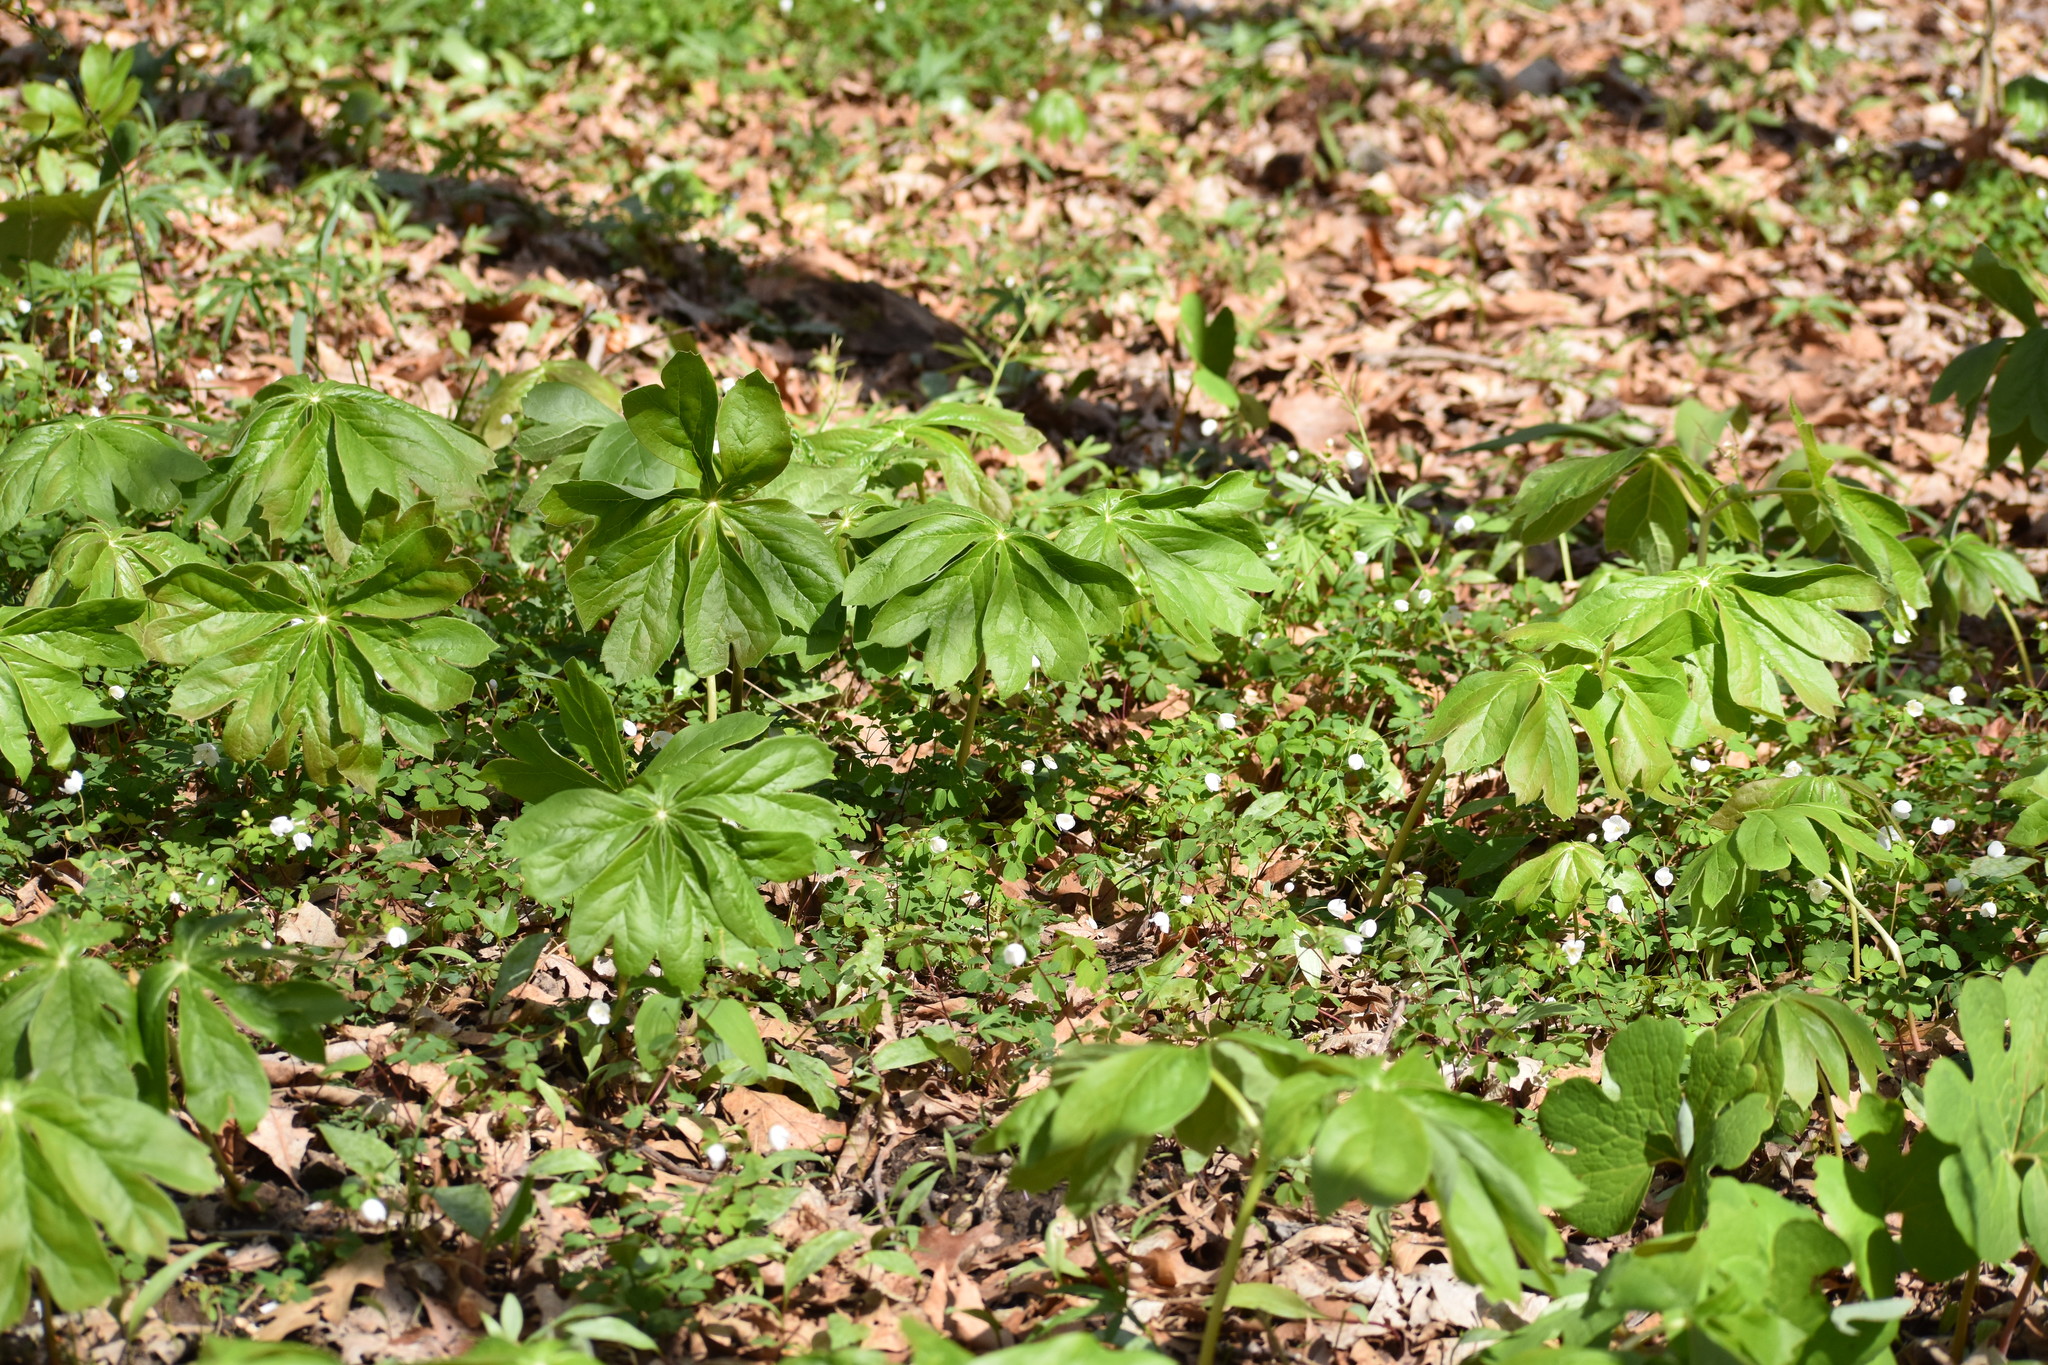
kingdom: Plantae
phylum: Tracheophyta
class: Magnoliopsida
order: Ranunculales
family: Berberidaceae
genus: Podophyllum
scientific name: Podophyllum peltatum
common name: Wild mandrake
